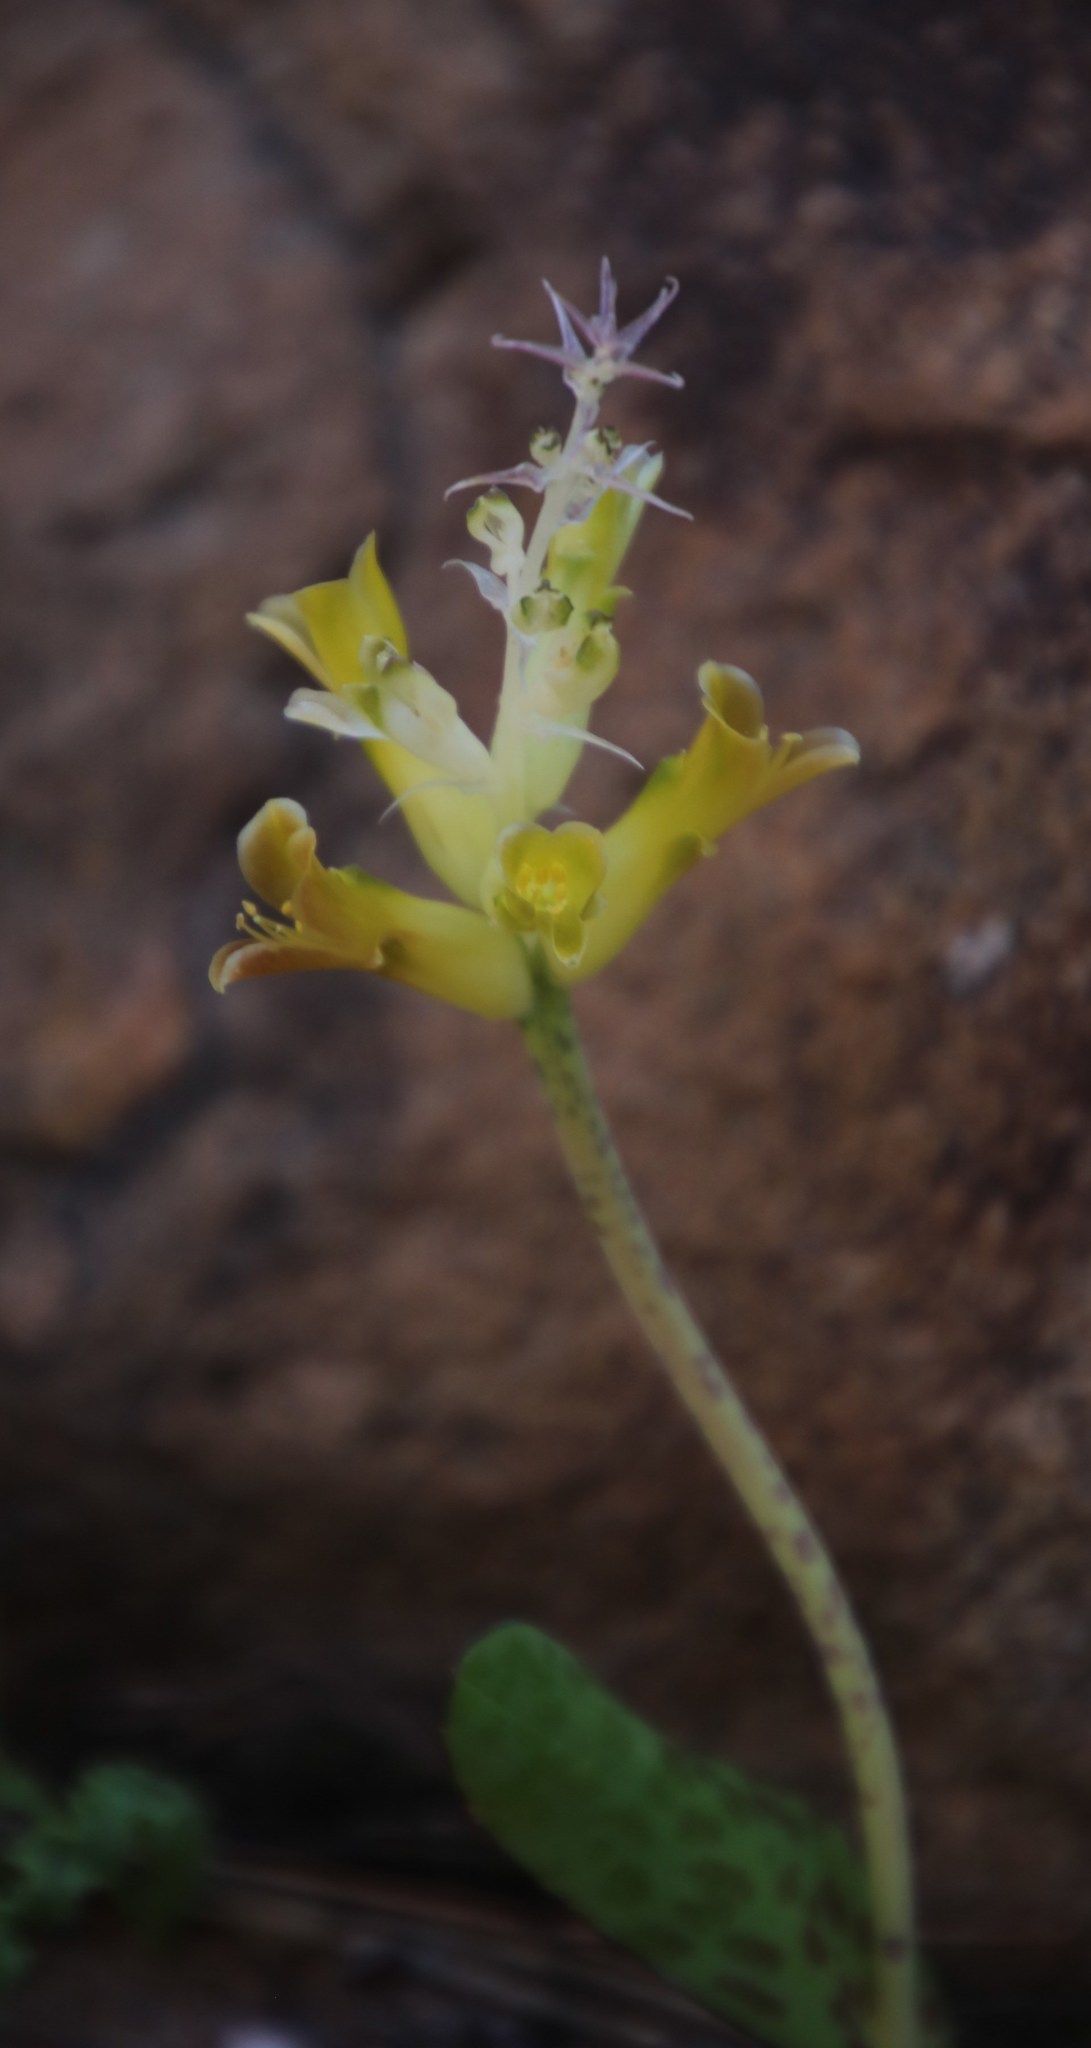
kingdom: Plantae
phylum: Tracheophyta
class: Liliopsida
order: Asparagales
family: Asparagaceae
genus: Lachenalia
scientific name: Lachenalia orchioides
